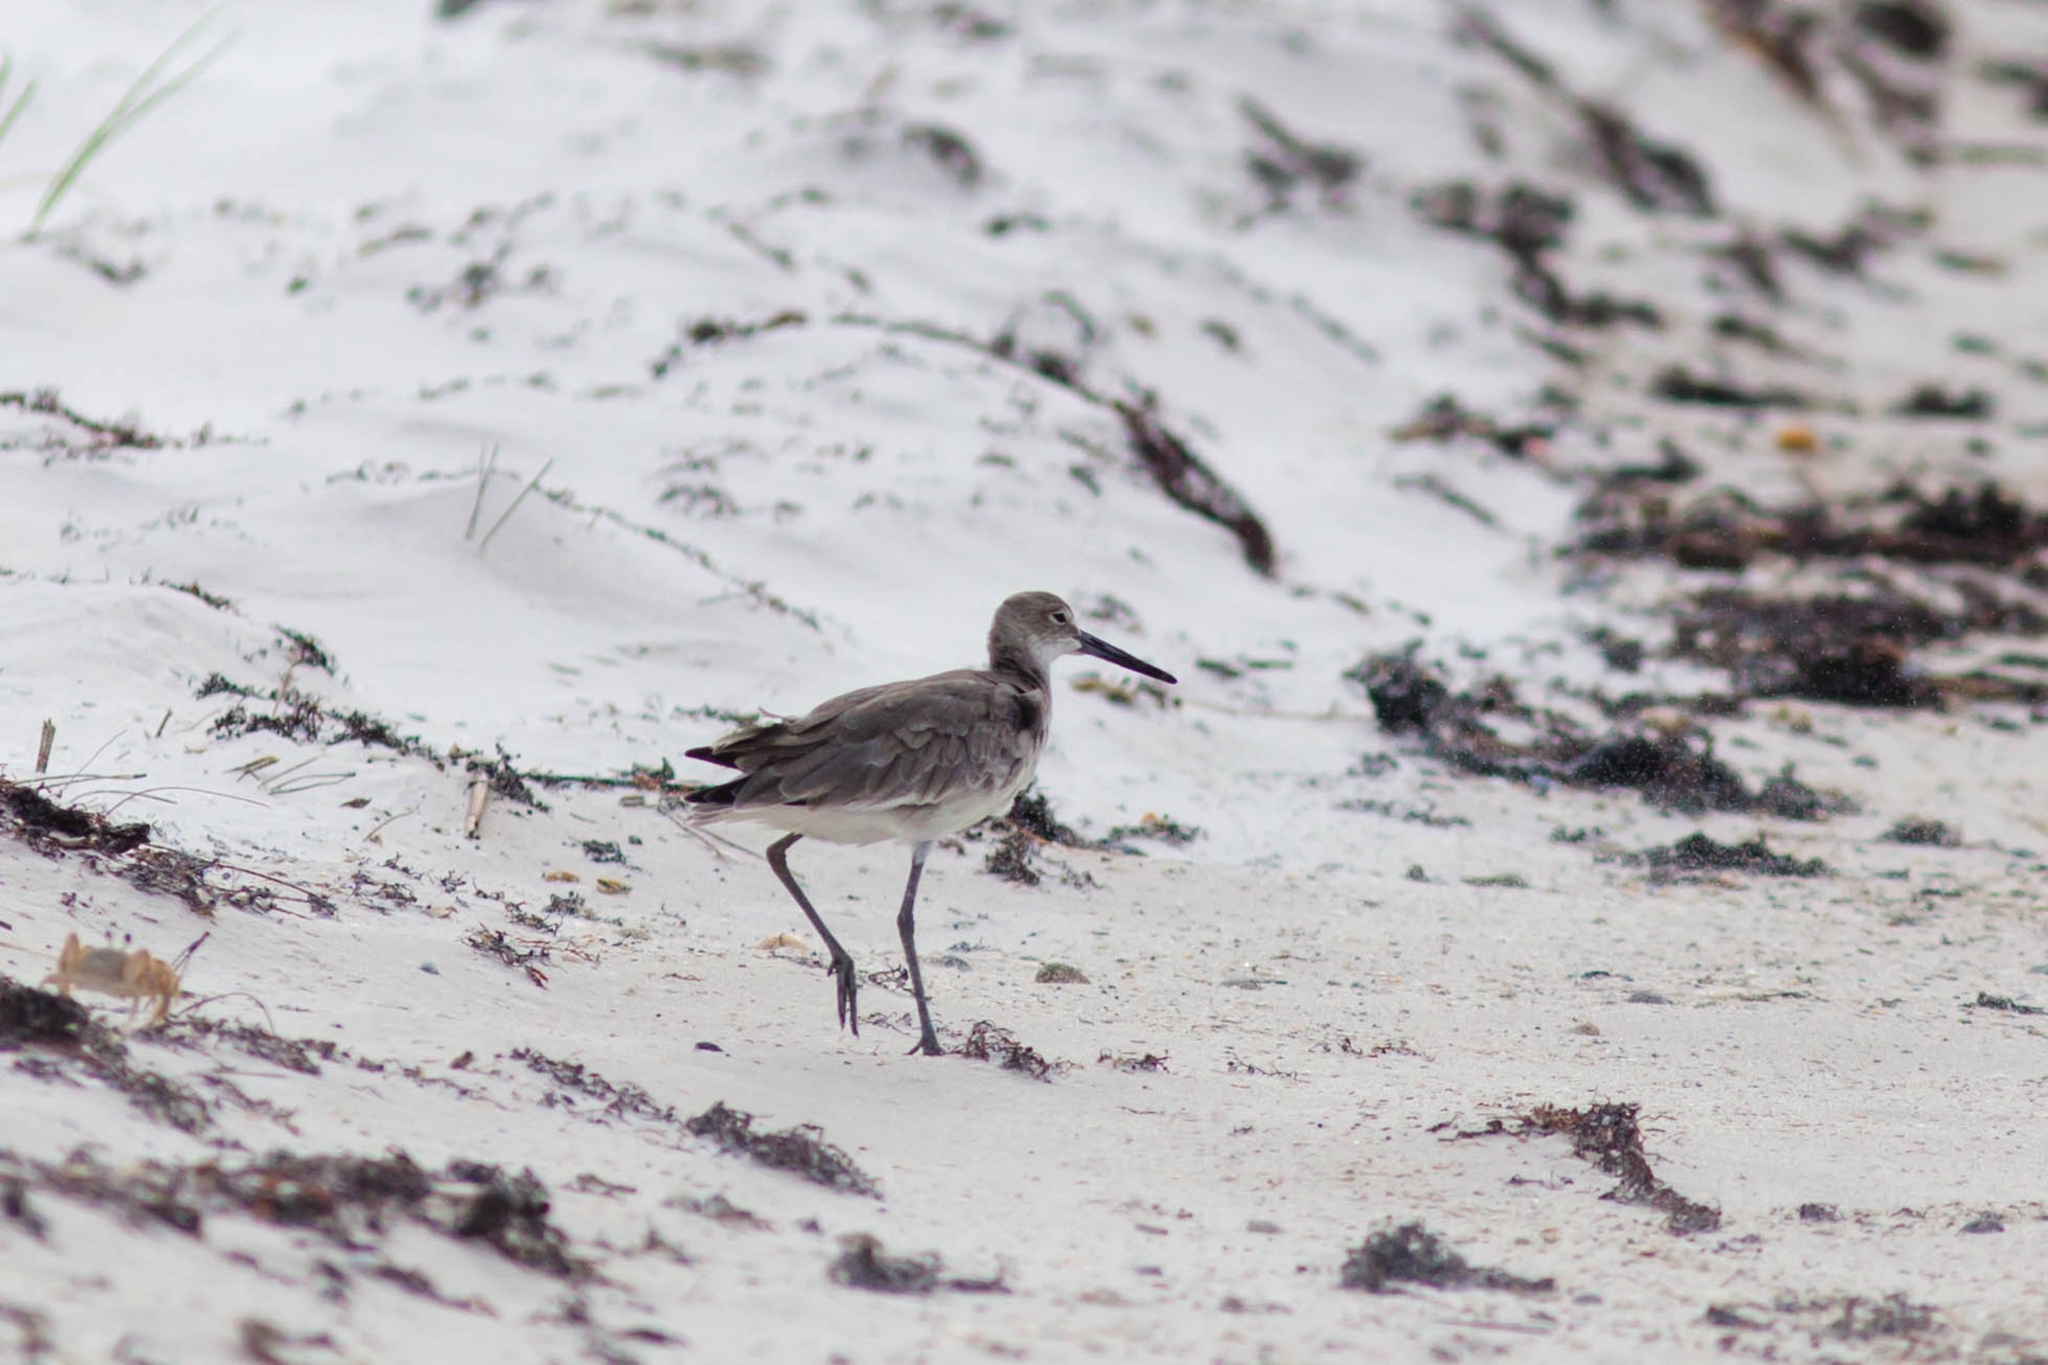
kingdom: Animalia
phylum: Chordata
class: Aves
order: Charadriiformes
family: Scolopacidae
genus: Tringa
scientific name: Tringa semipalmata
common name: Willet
